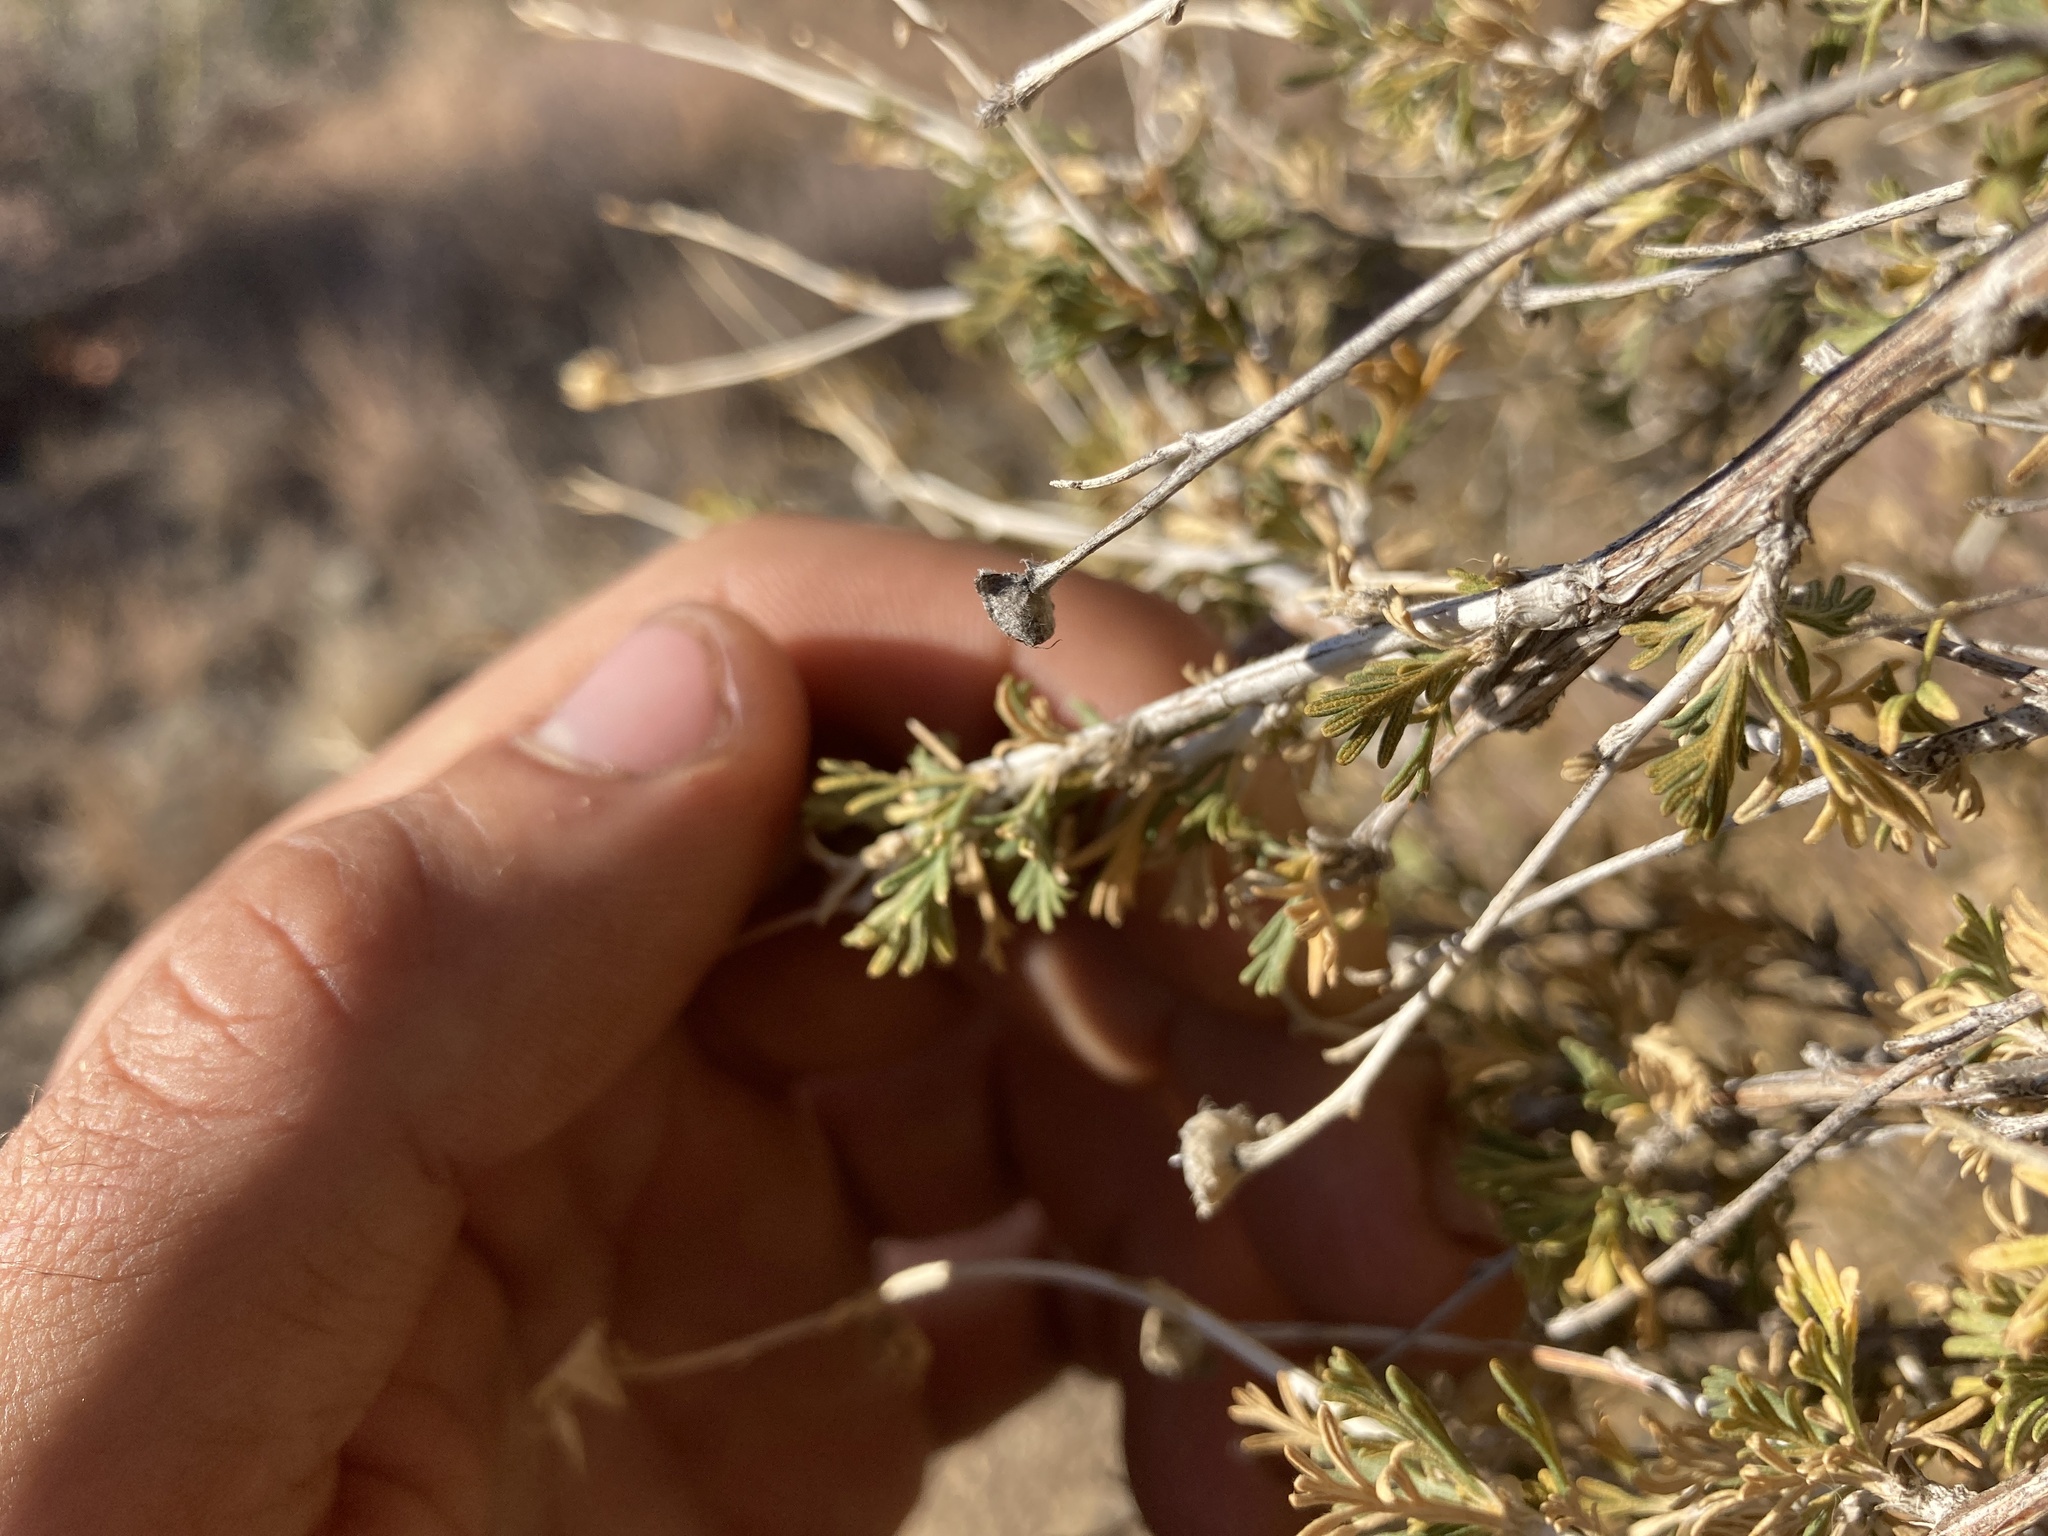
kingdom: Plantae
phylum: Tracheophyta
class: Magnoliopsida
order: Rosales
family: Rosaceae
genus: Fallugia
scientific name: Fallugia paradoxa
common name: Apache-plume
